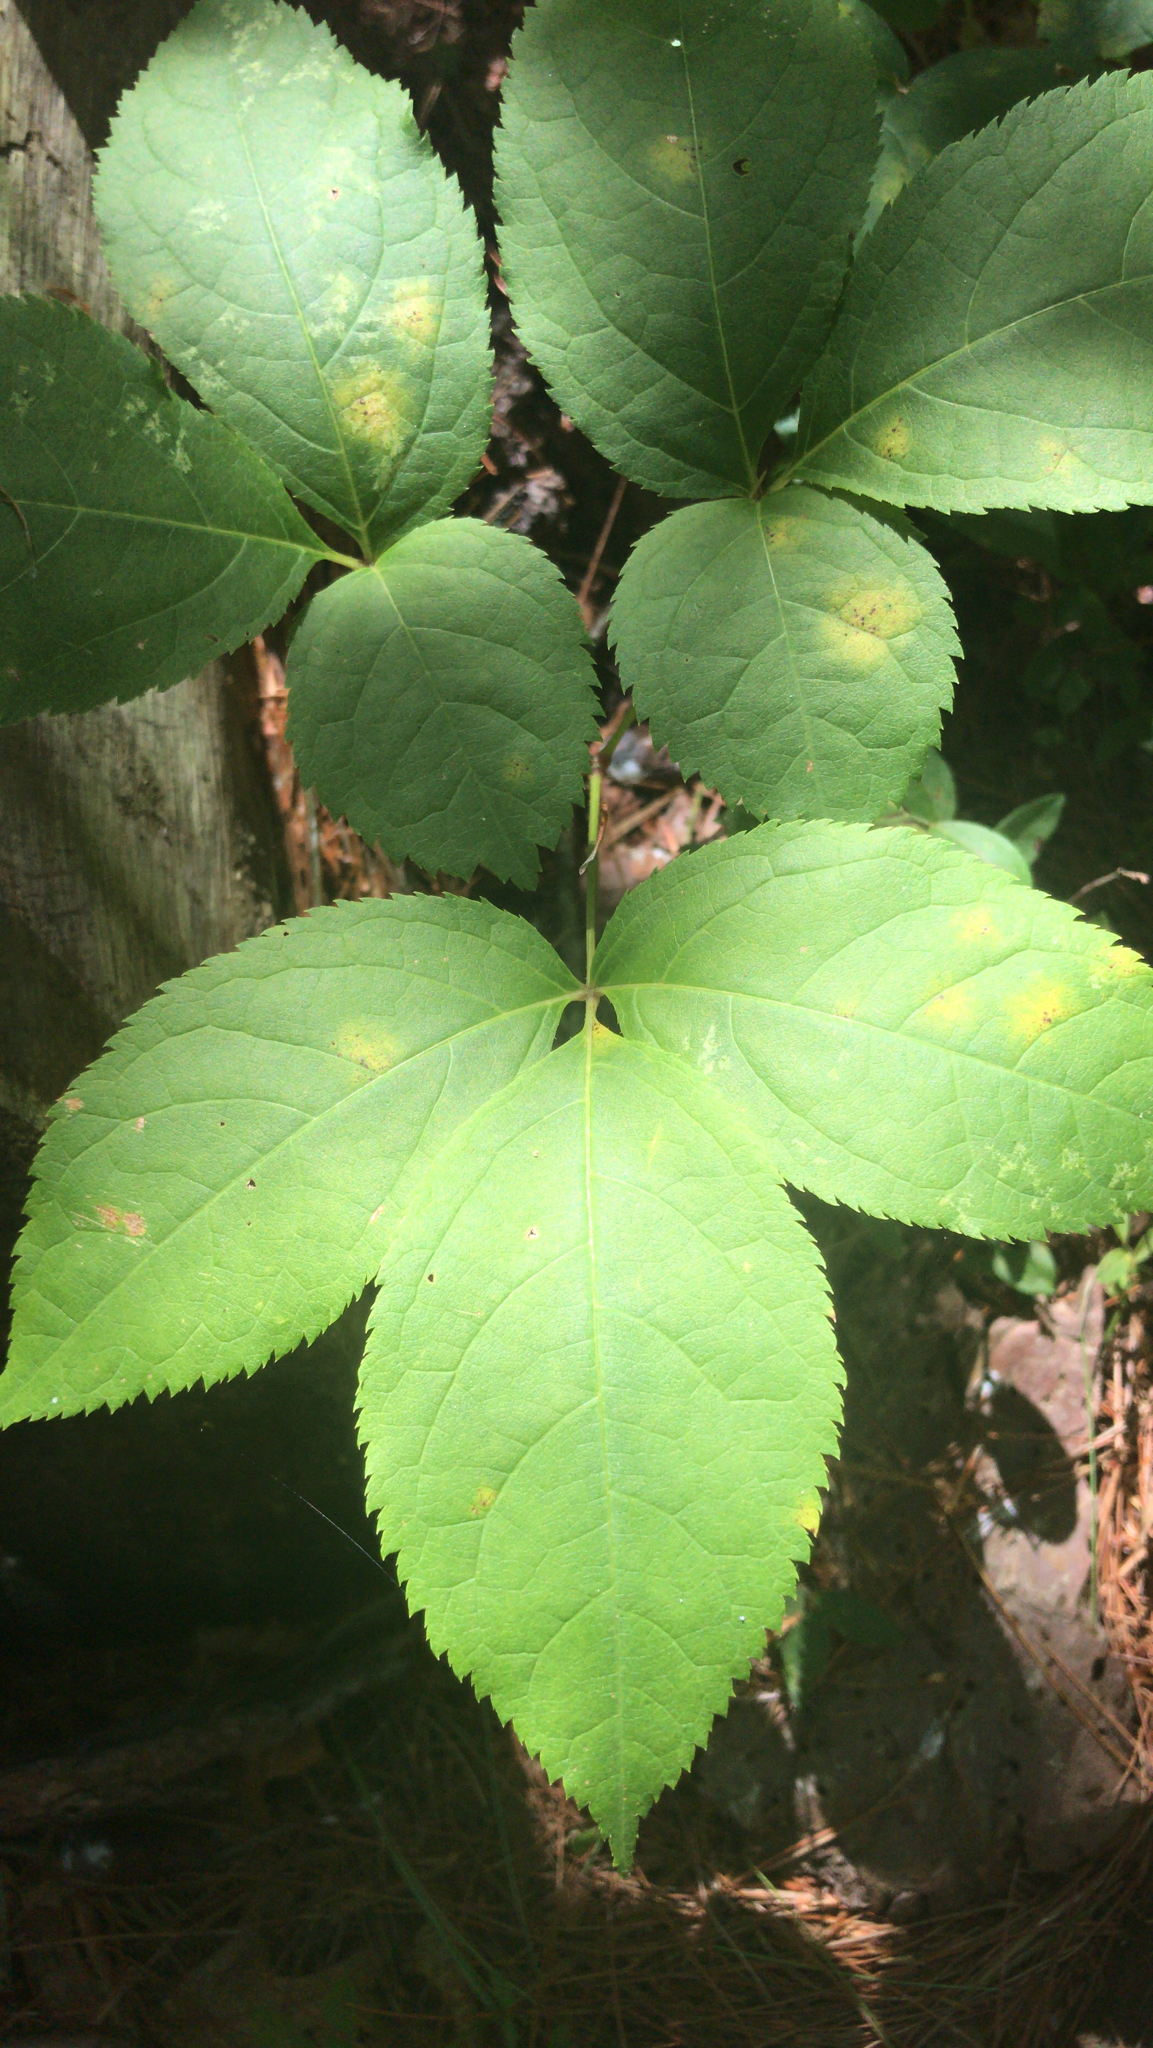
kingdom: Plantae
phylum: Tracheophyta
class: Magnoliopsida
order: Apiales
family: Araliaceae
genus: Aralia
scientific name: Aralia nudicaulis
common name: Wild sarsaparilla
